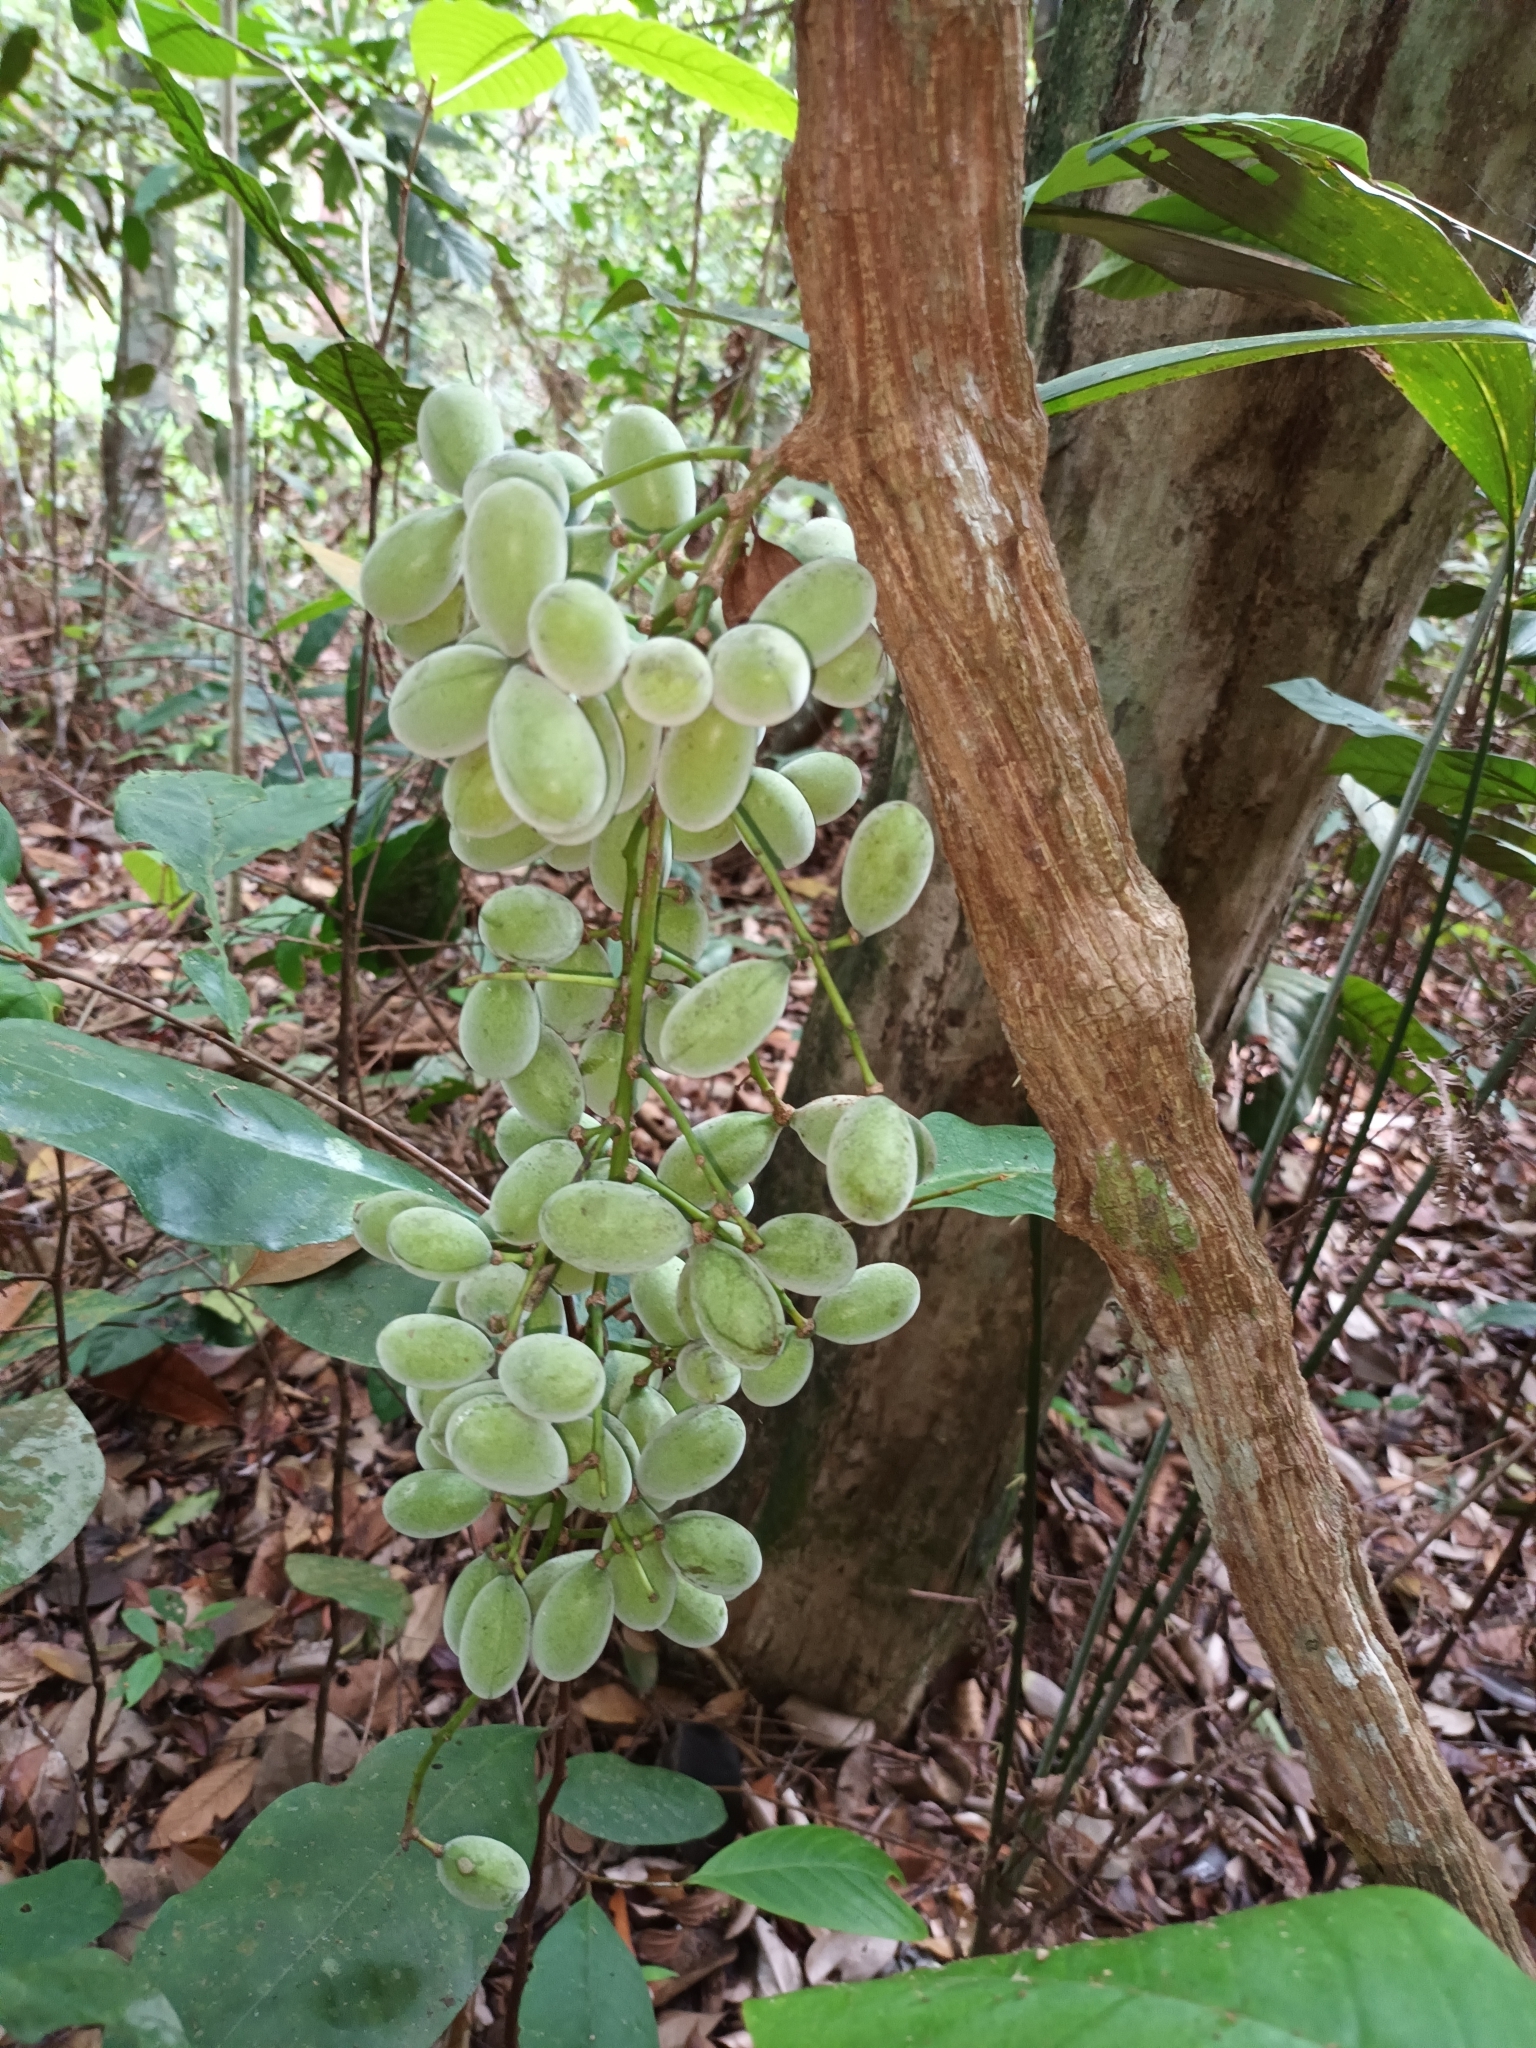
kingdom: Plantae
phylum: Tracheophyta
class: Magnoliopsida
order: Ranunculales
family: Menispermaceae
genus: Fibraurea
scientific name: Fibraurea tinctoria
